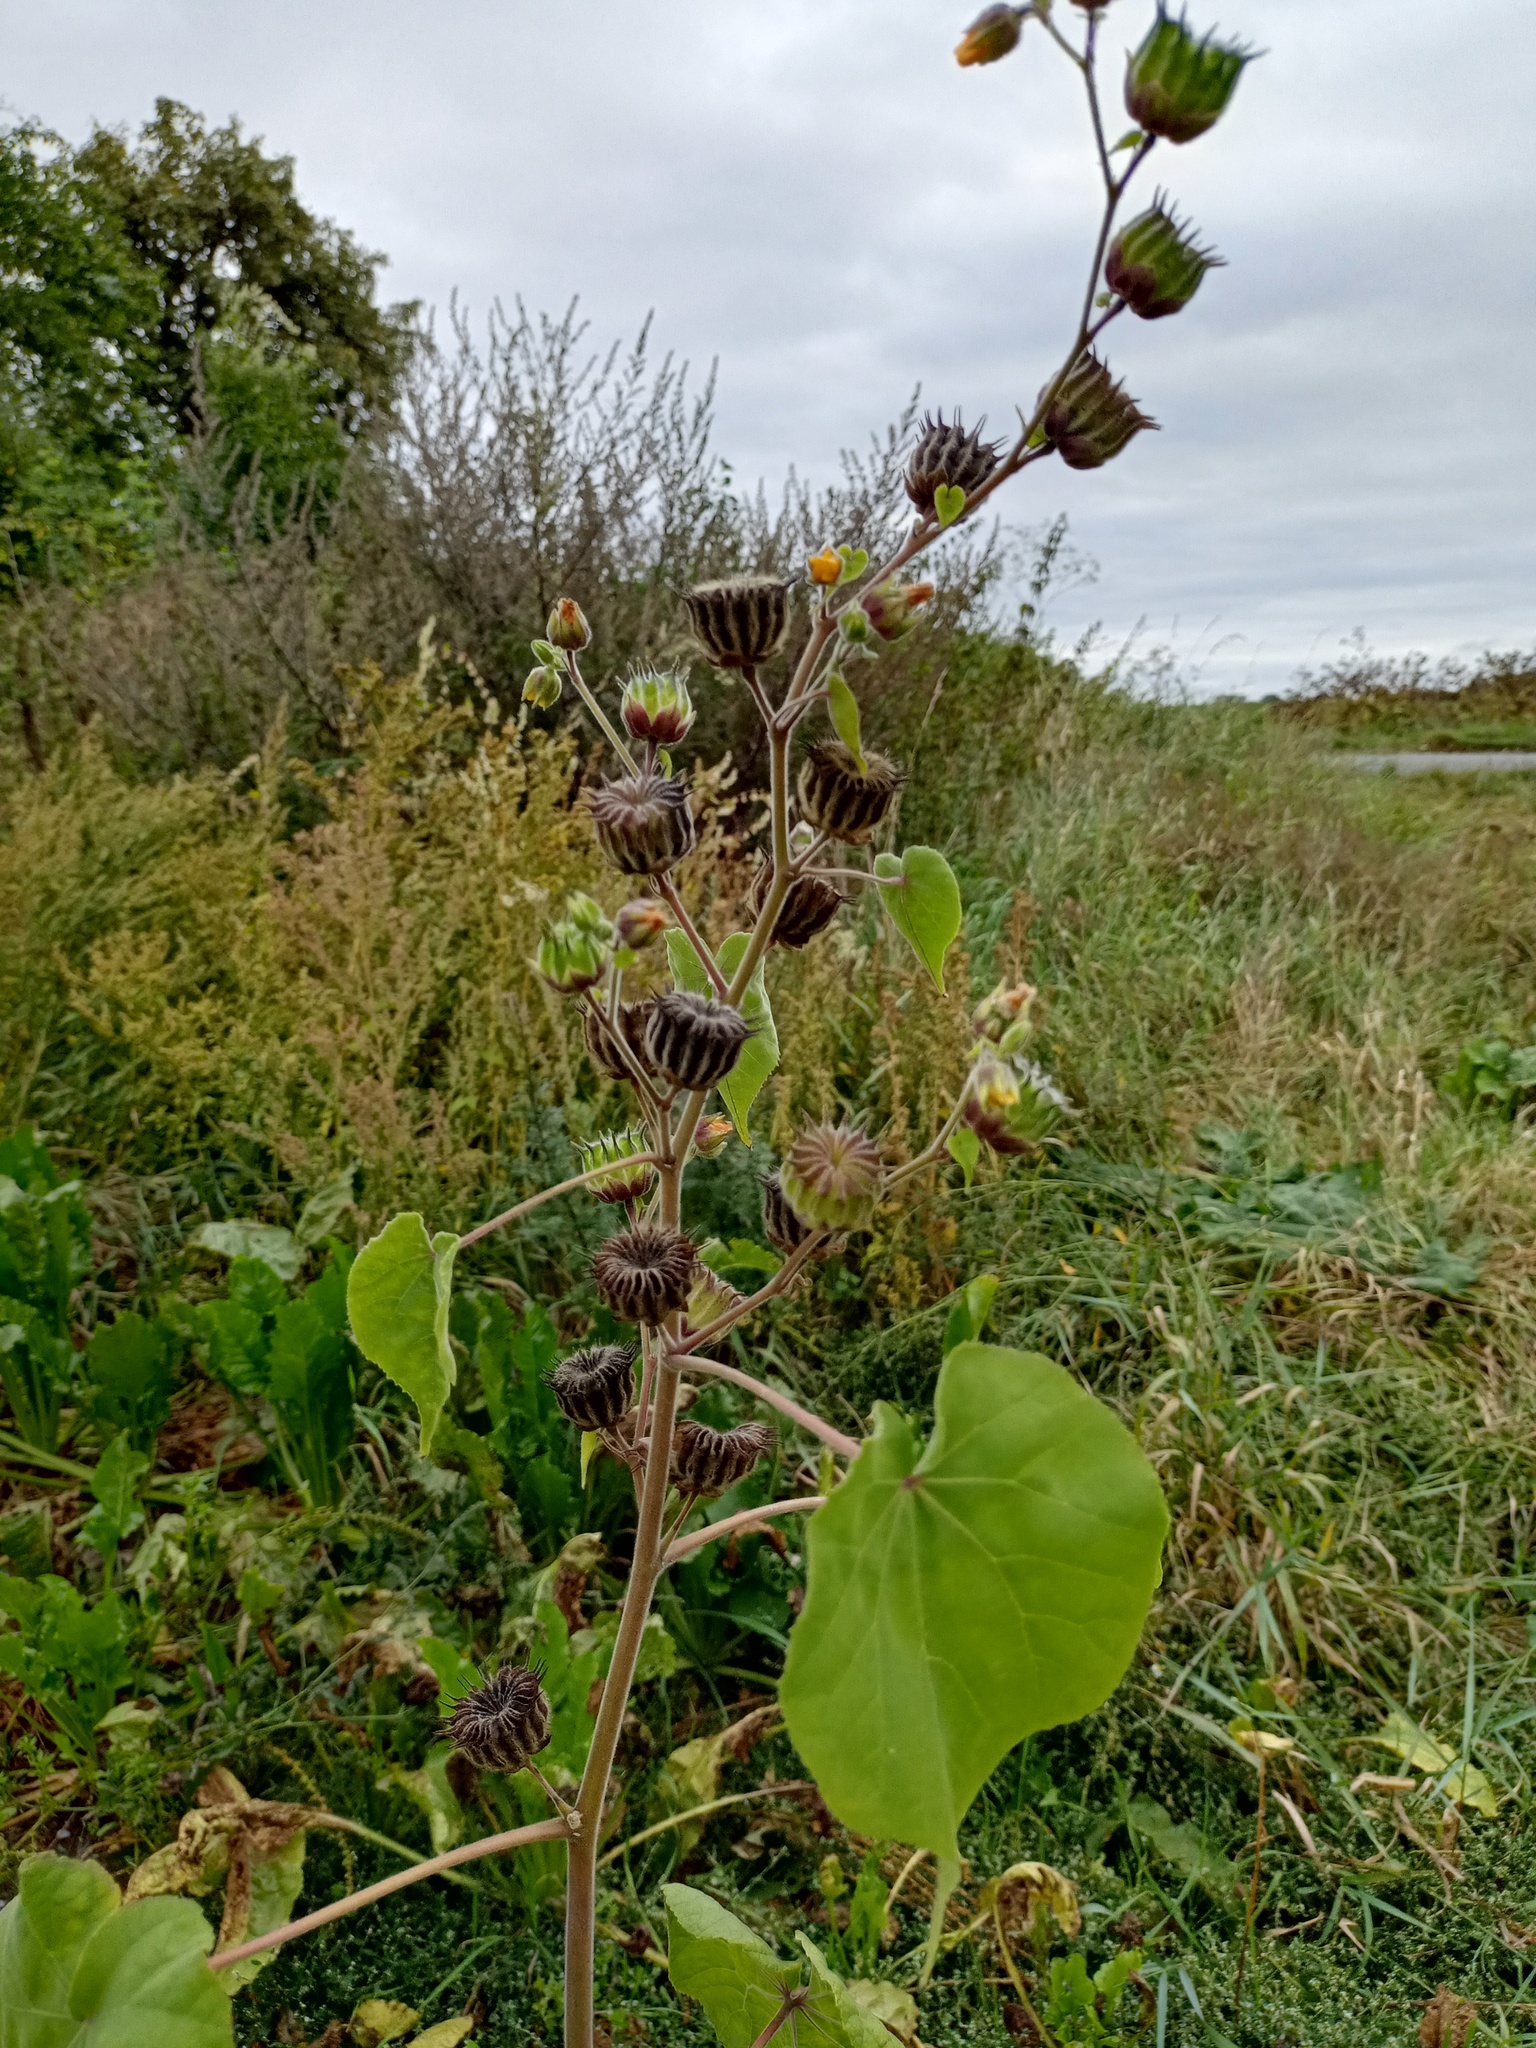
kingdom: Plantae
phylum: Tracheophyta
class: Magnoliopsida
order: Malvales
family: Malvaceae
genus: Abutilon
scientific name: Abutilon theophrasti
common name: Velvetleaf
